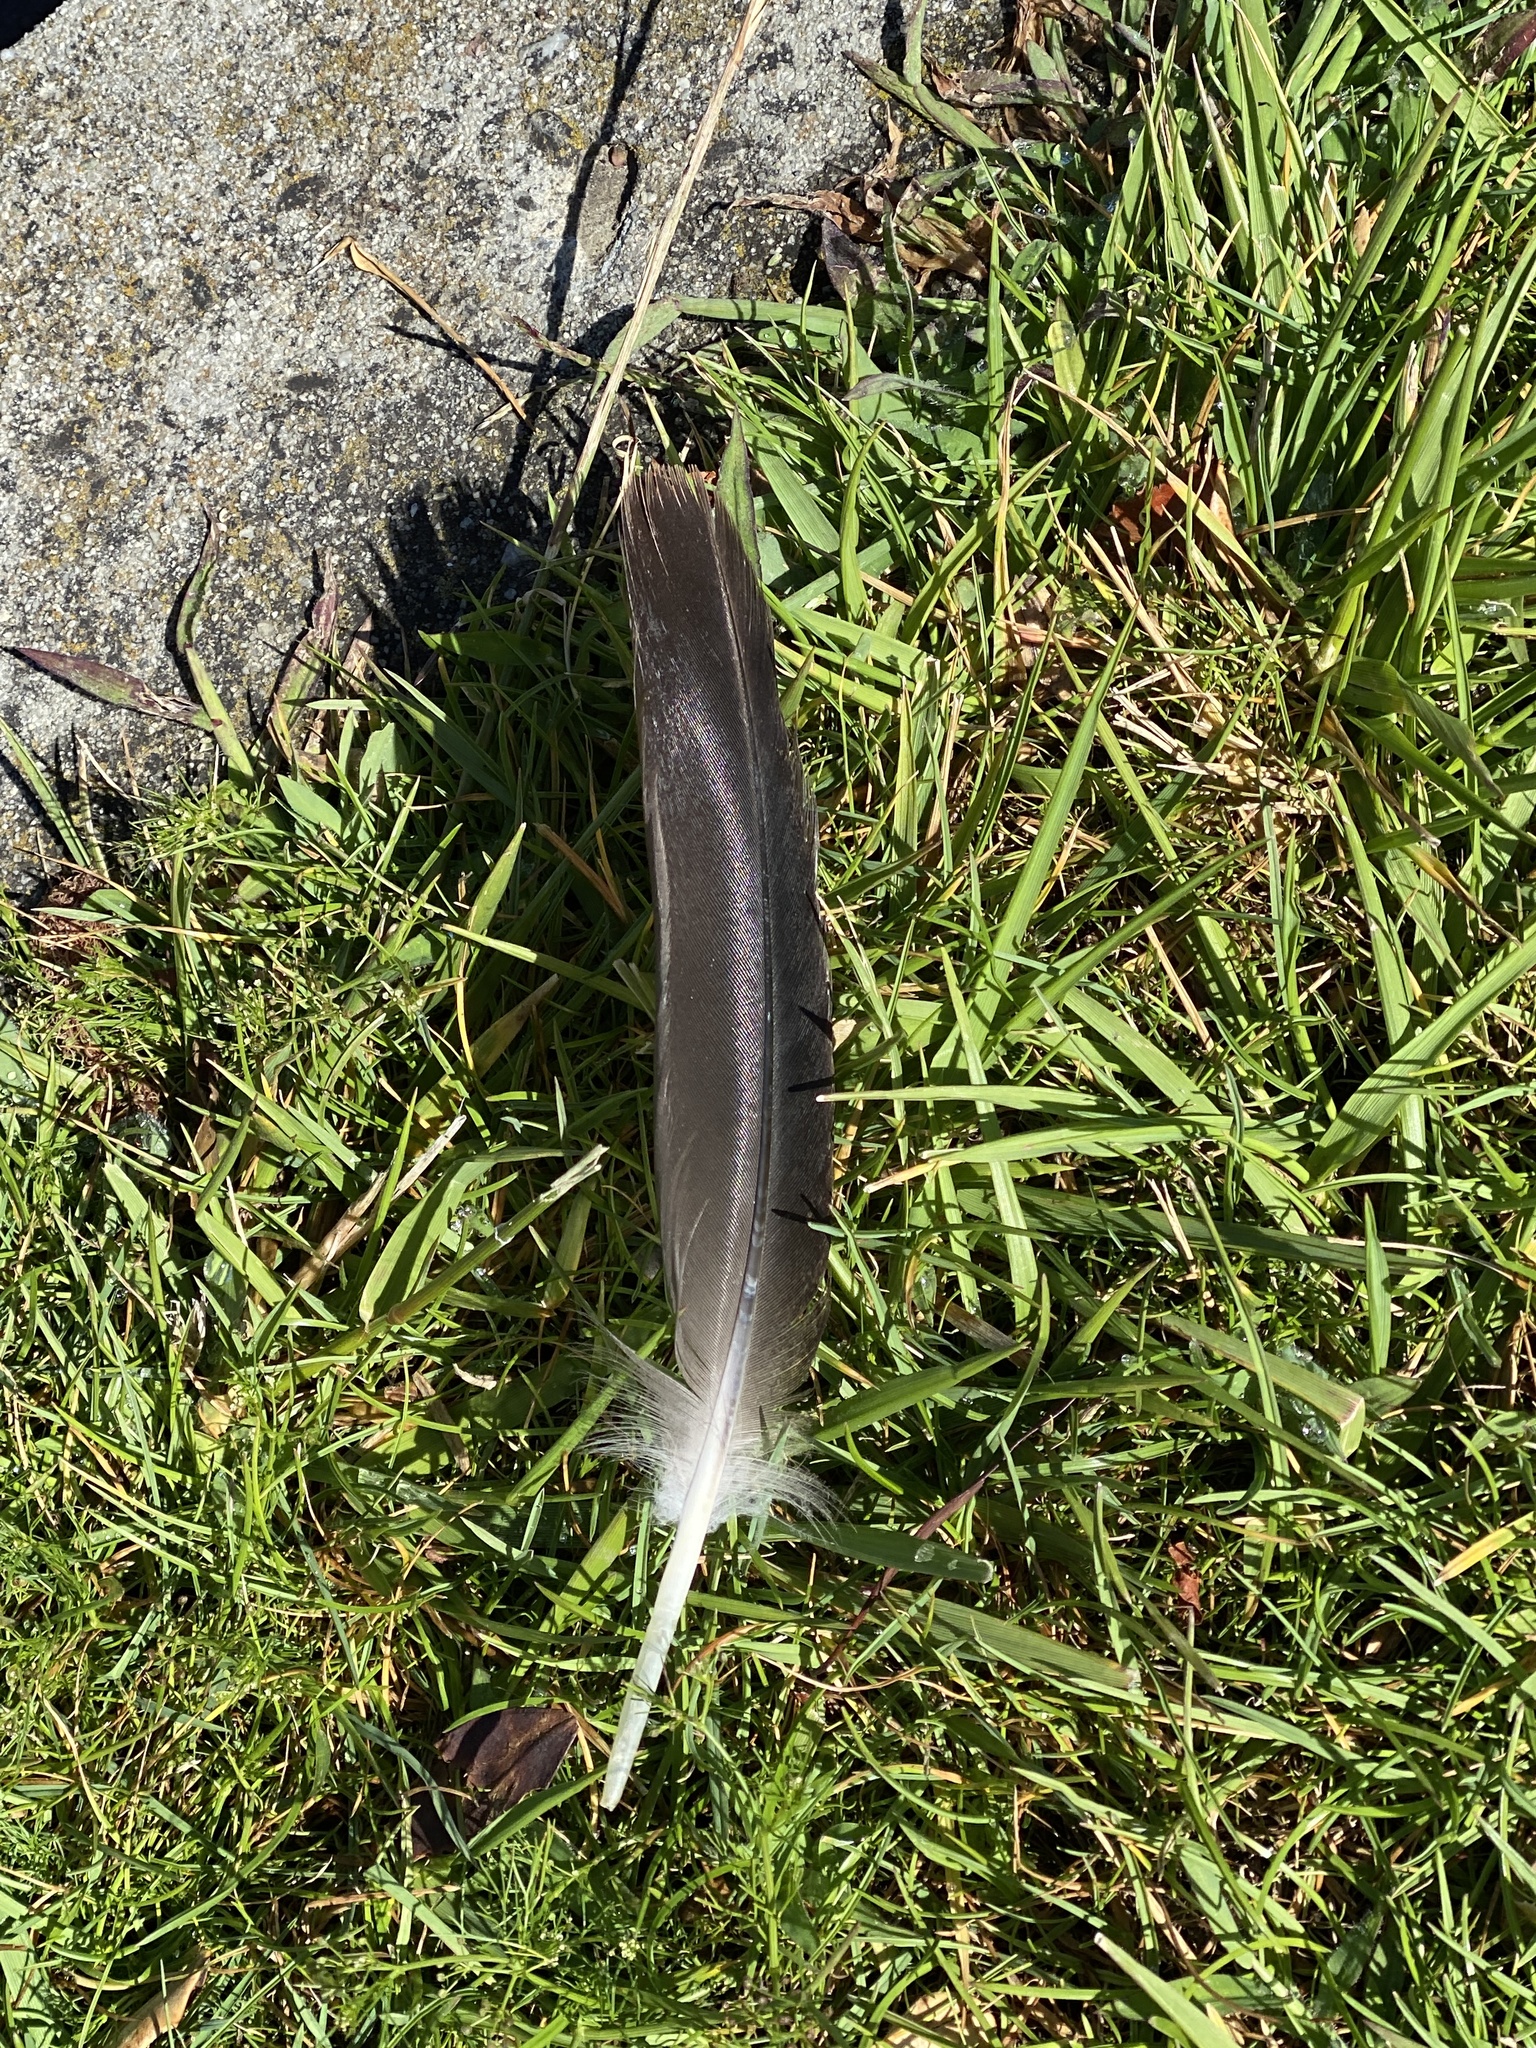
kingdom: Animalia
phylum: Chordata
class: Aves
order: Anseriformes
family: Anatidae
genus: Branta
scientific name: Branta canadensis
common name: Canada goose
